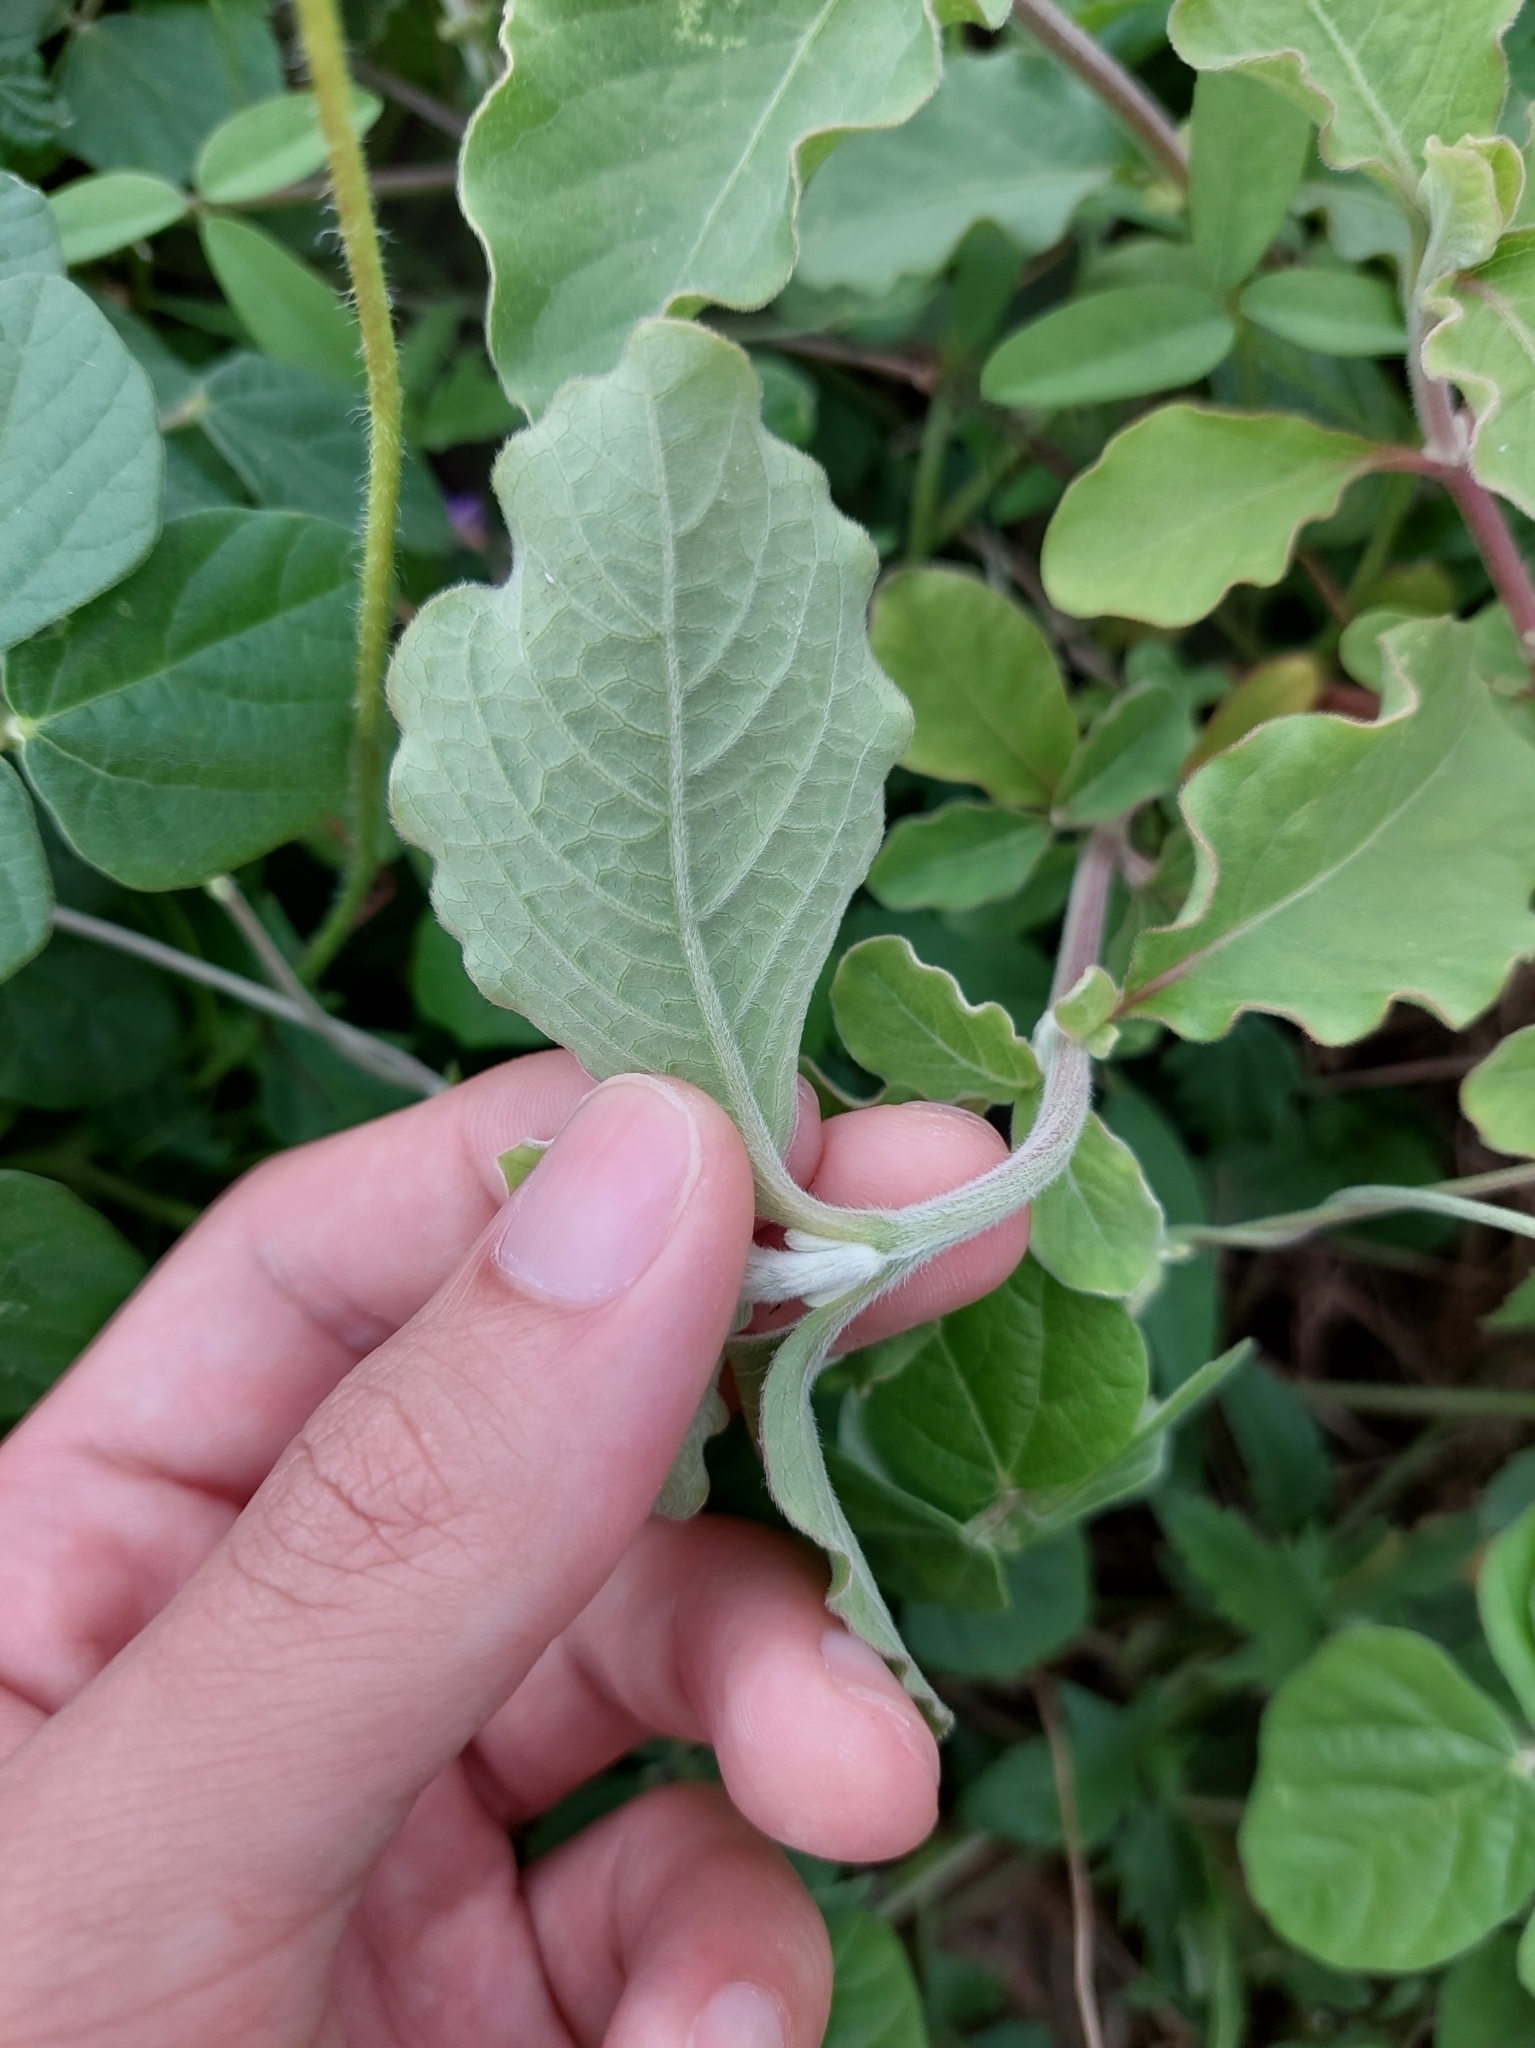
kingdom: Plantae
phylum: Tracheophyta
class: Magnoliopsida
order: Caryophyllales
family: Amaranthaceae
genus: Achyranthes
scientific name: Achyranthes aspera
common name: Devil's horsewhip
